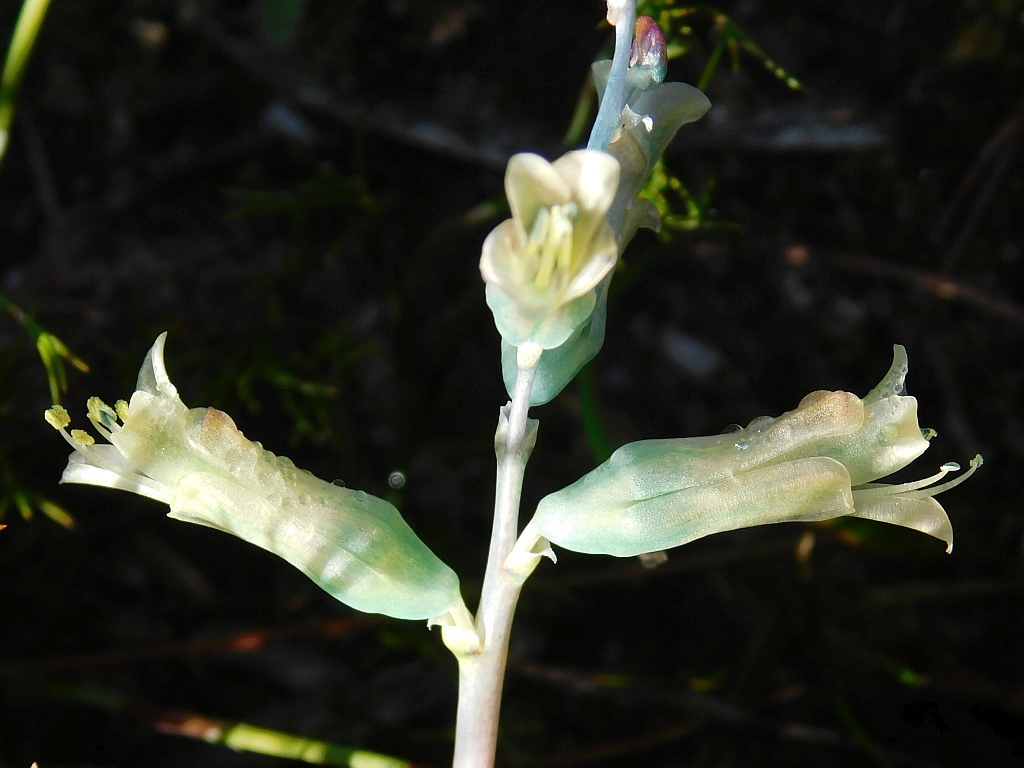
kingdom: Plantae
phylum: Tracheophyta
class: Liliopsida
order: Asparagales
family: Asparagaceae
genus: Lachenalia
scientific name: Lachenalia orchioides
